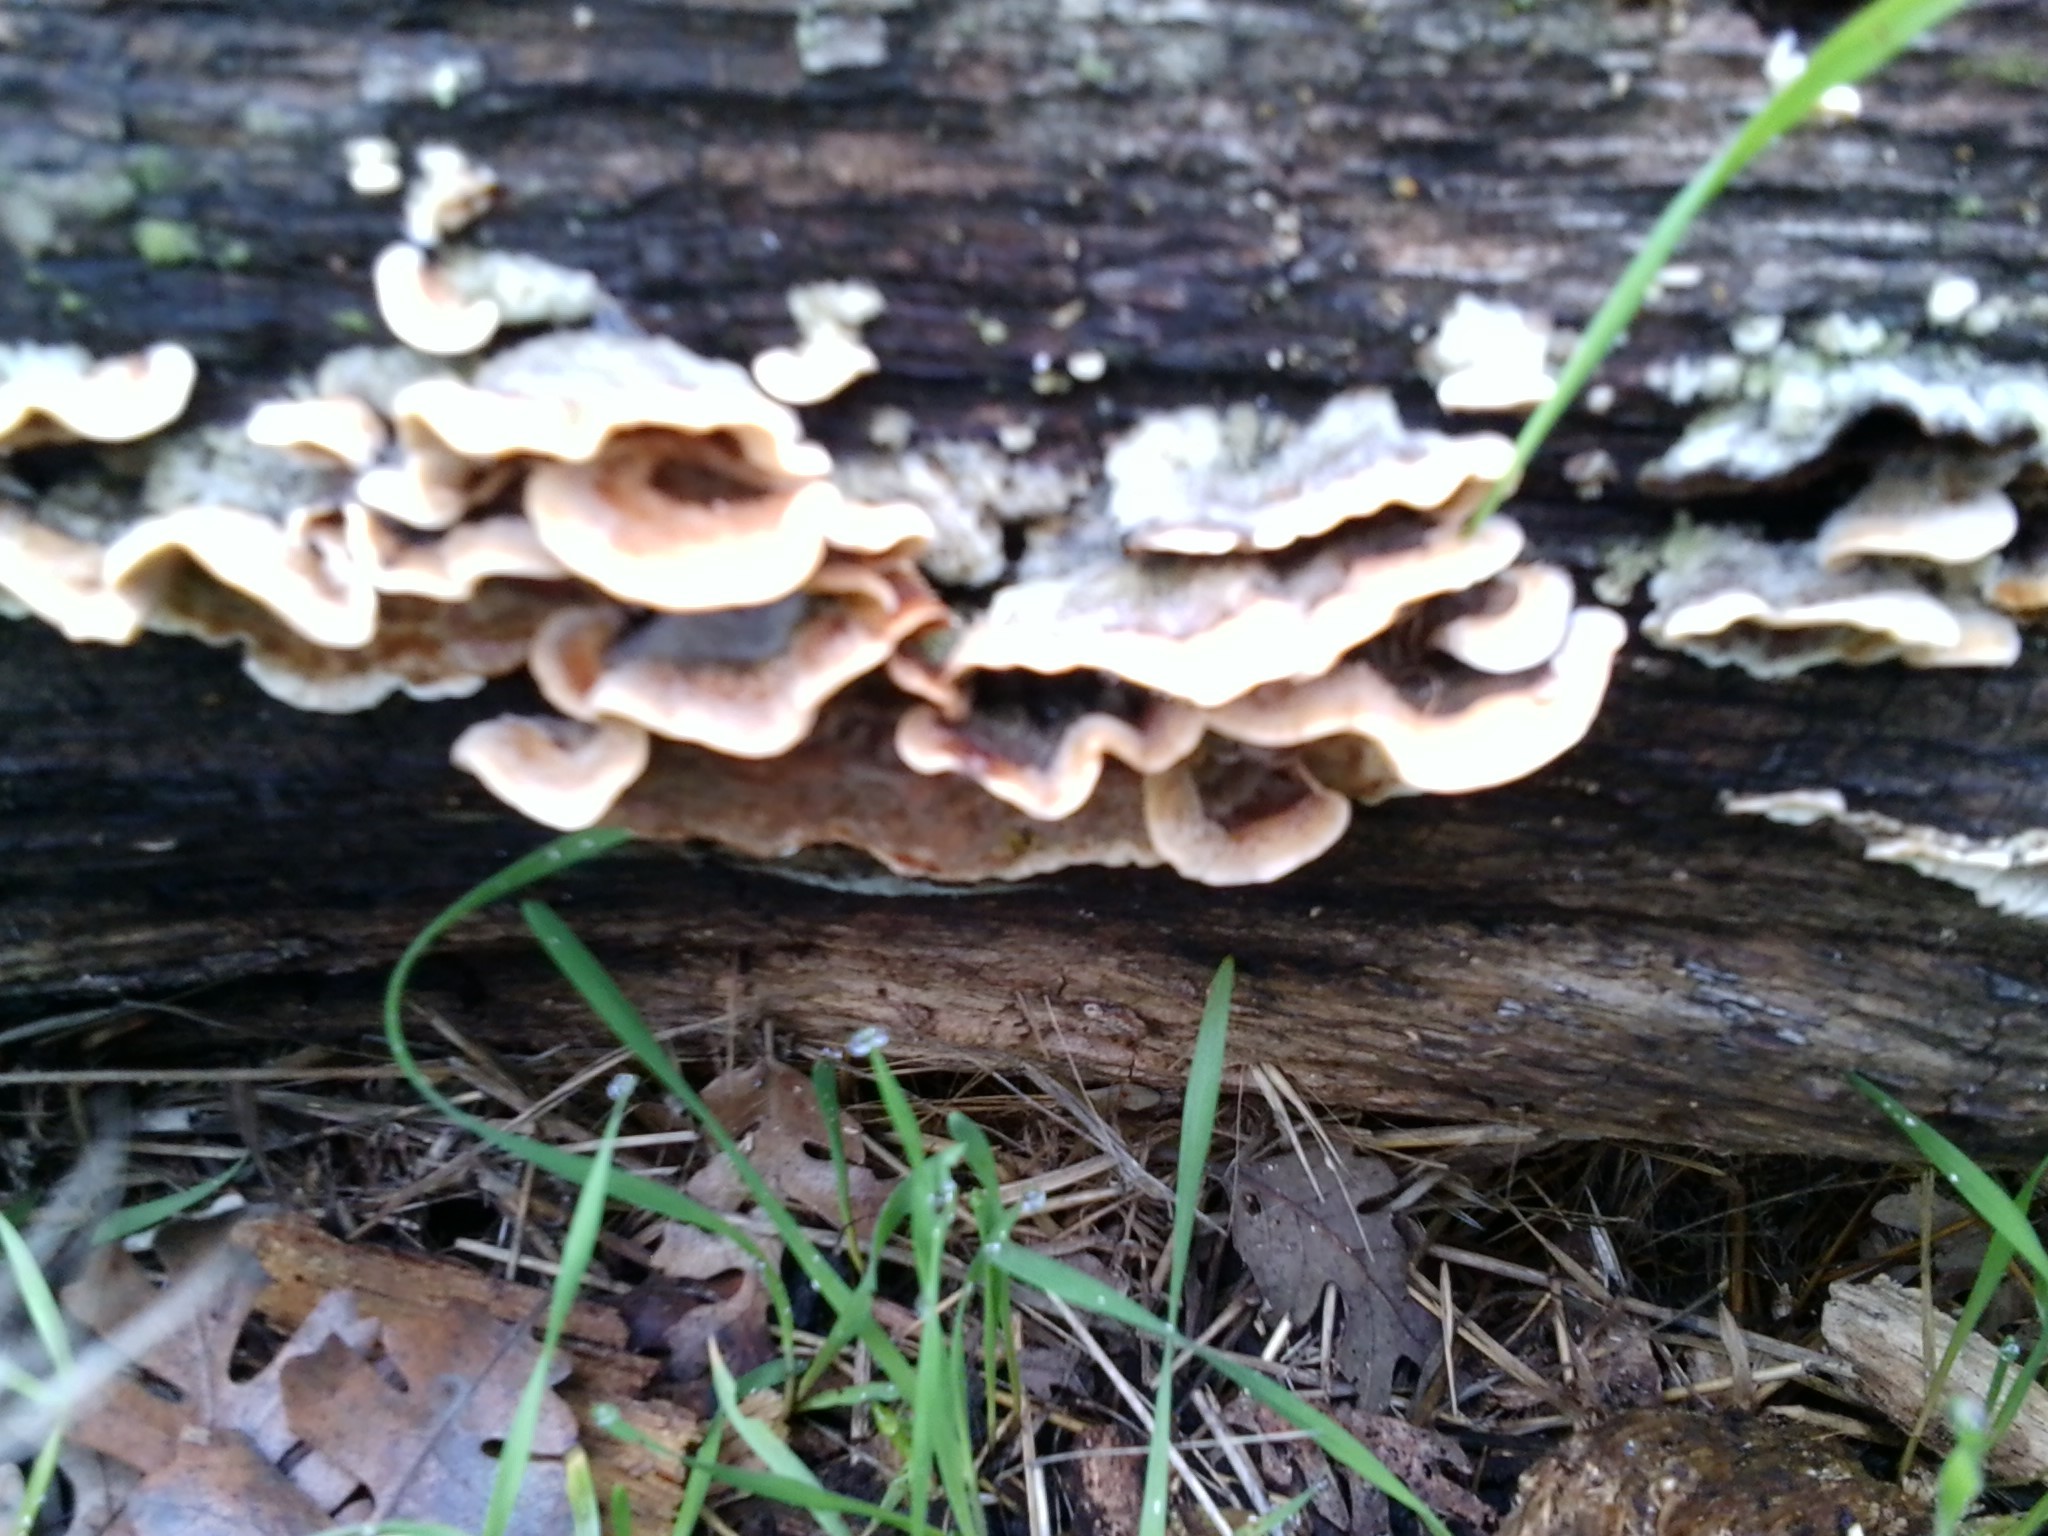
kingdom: Fungi
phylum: Basidiomycota
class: Agaricomycetes
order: Polyporales
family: Polyporaceae
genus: Trametes
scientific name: Trametes versicolor
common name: Turkeytail
